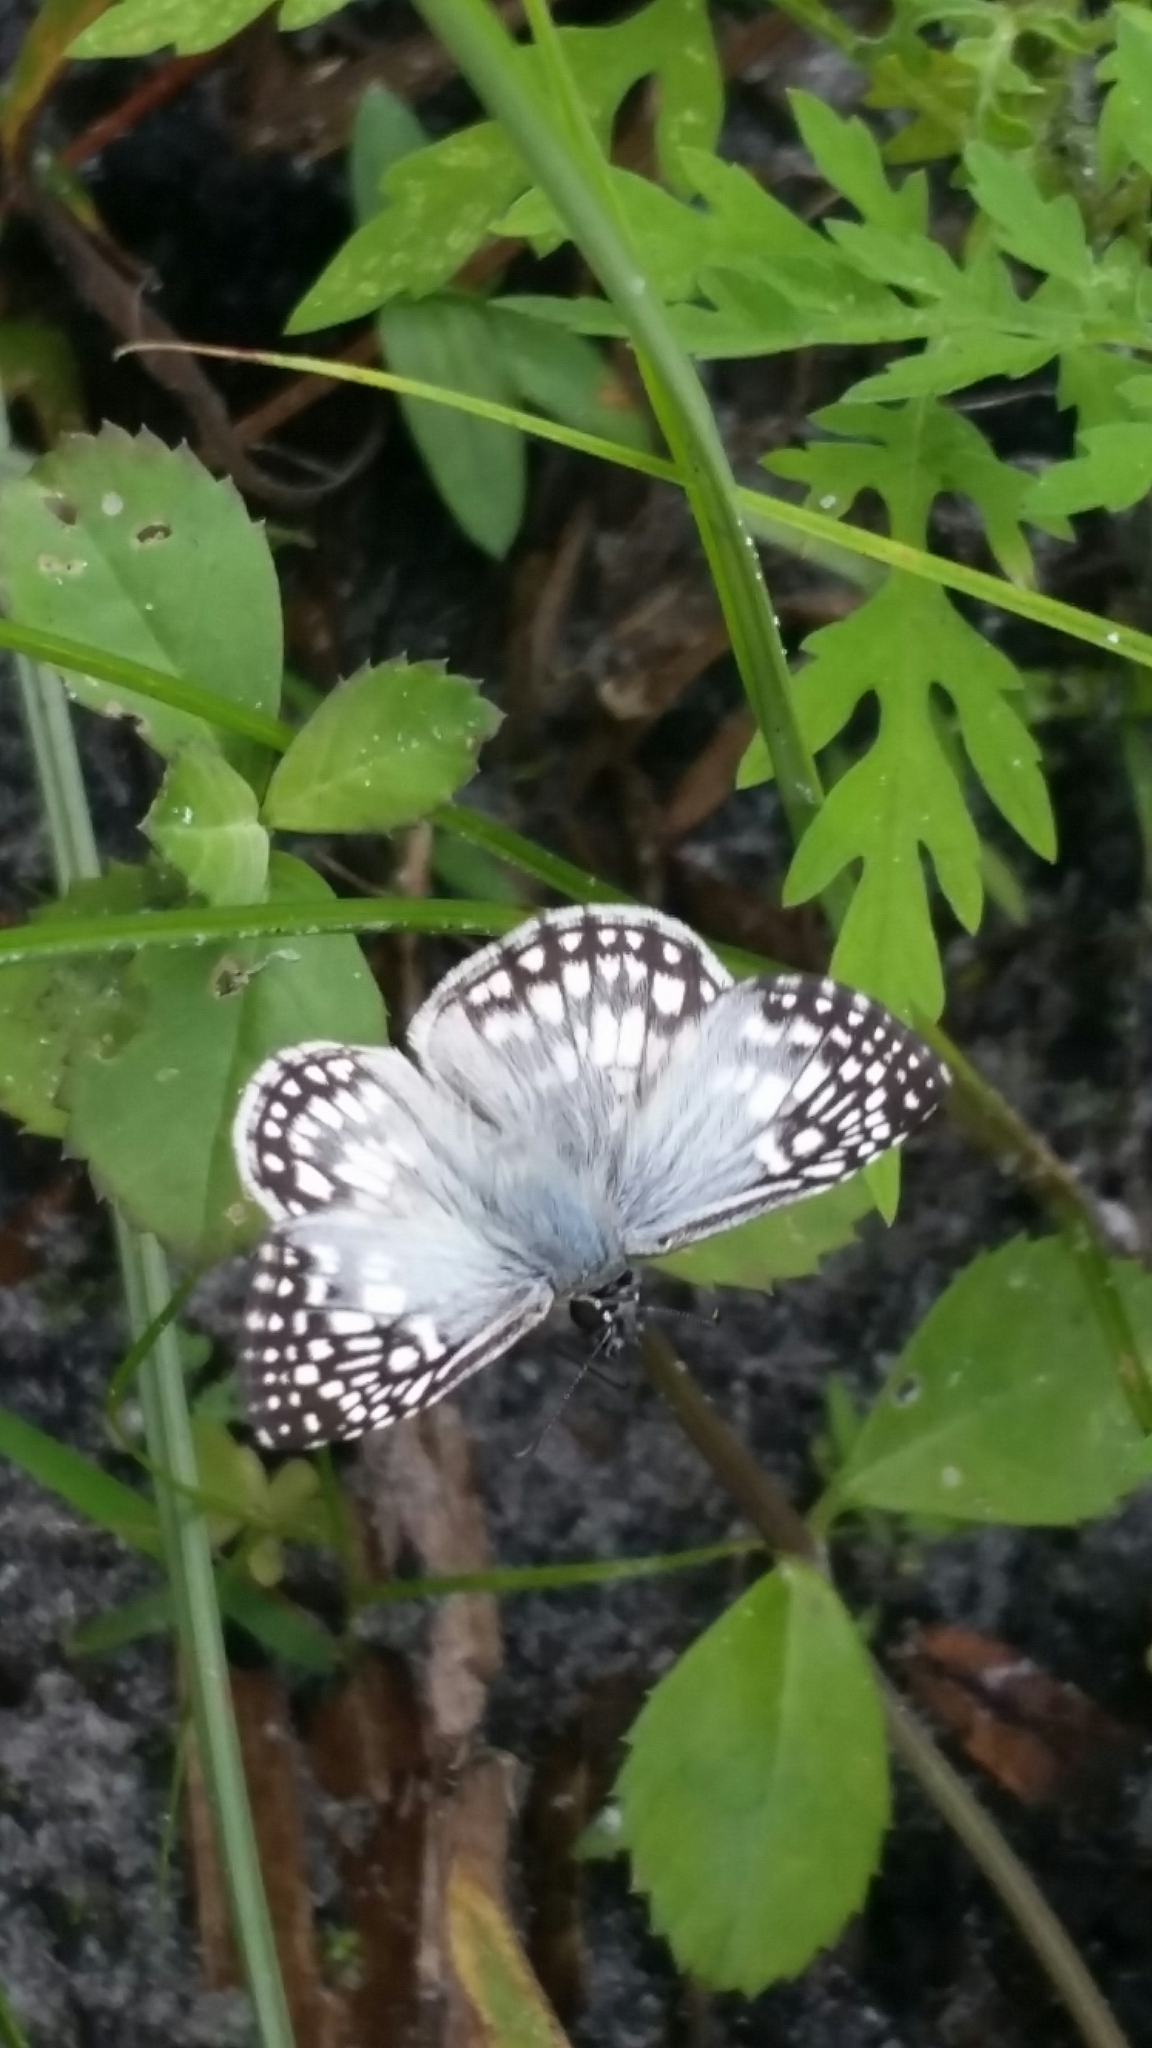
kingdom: Animalia
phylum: Arthropoda
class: Insecta
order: Lepidoptera
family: Hesperiidae
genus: Pyrgus
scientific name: Pyrgus oileus
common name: Tropical checkered-skipper
